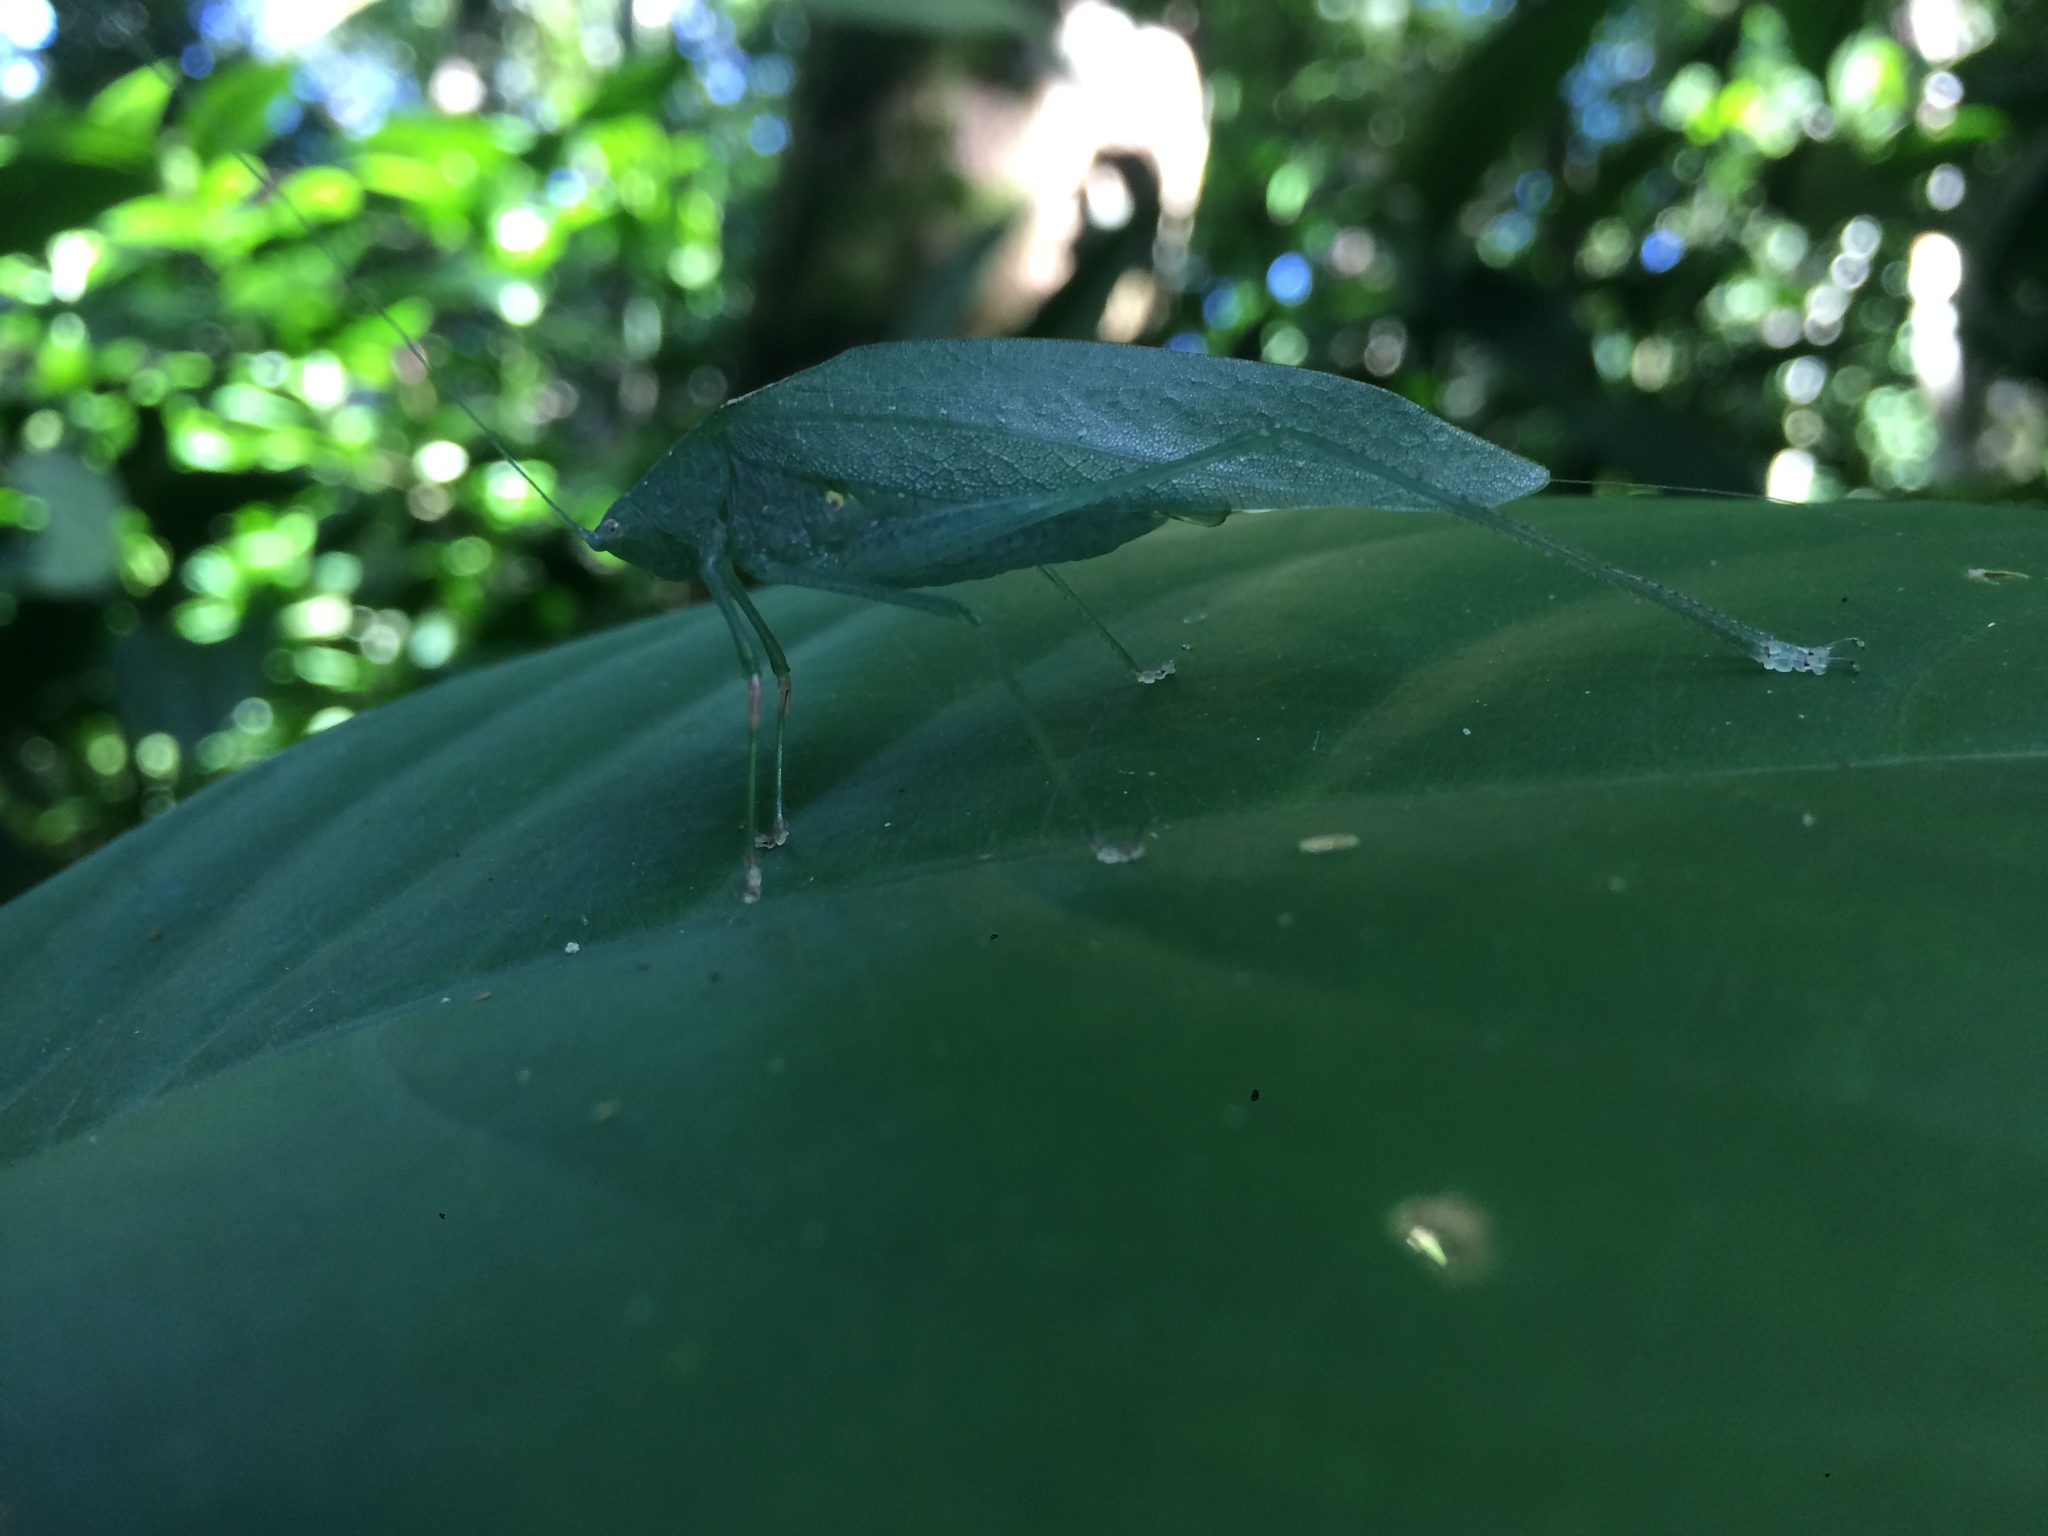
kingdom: Animalia
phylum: Arthropoda
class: Insecta
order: Orthoptera
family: Tettigoniidae
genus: Anaulacomera
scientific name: Anaulacomera trispinata
